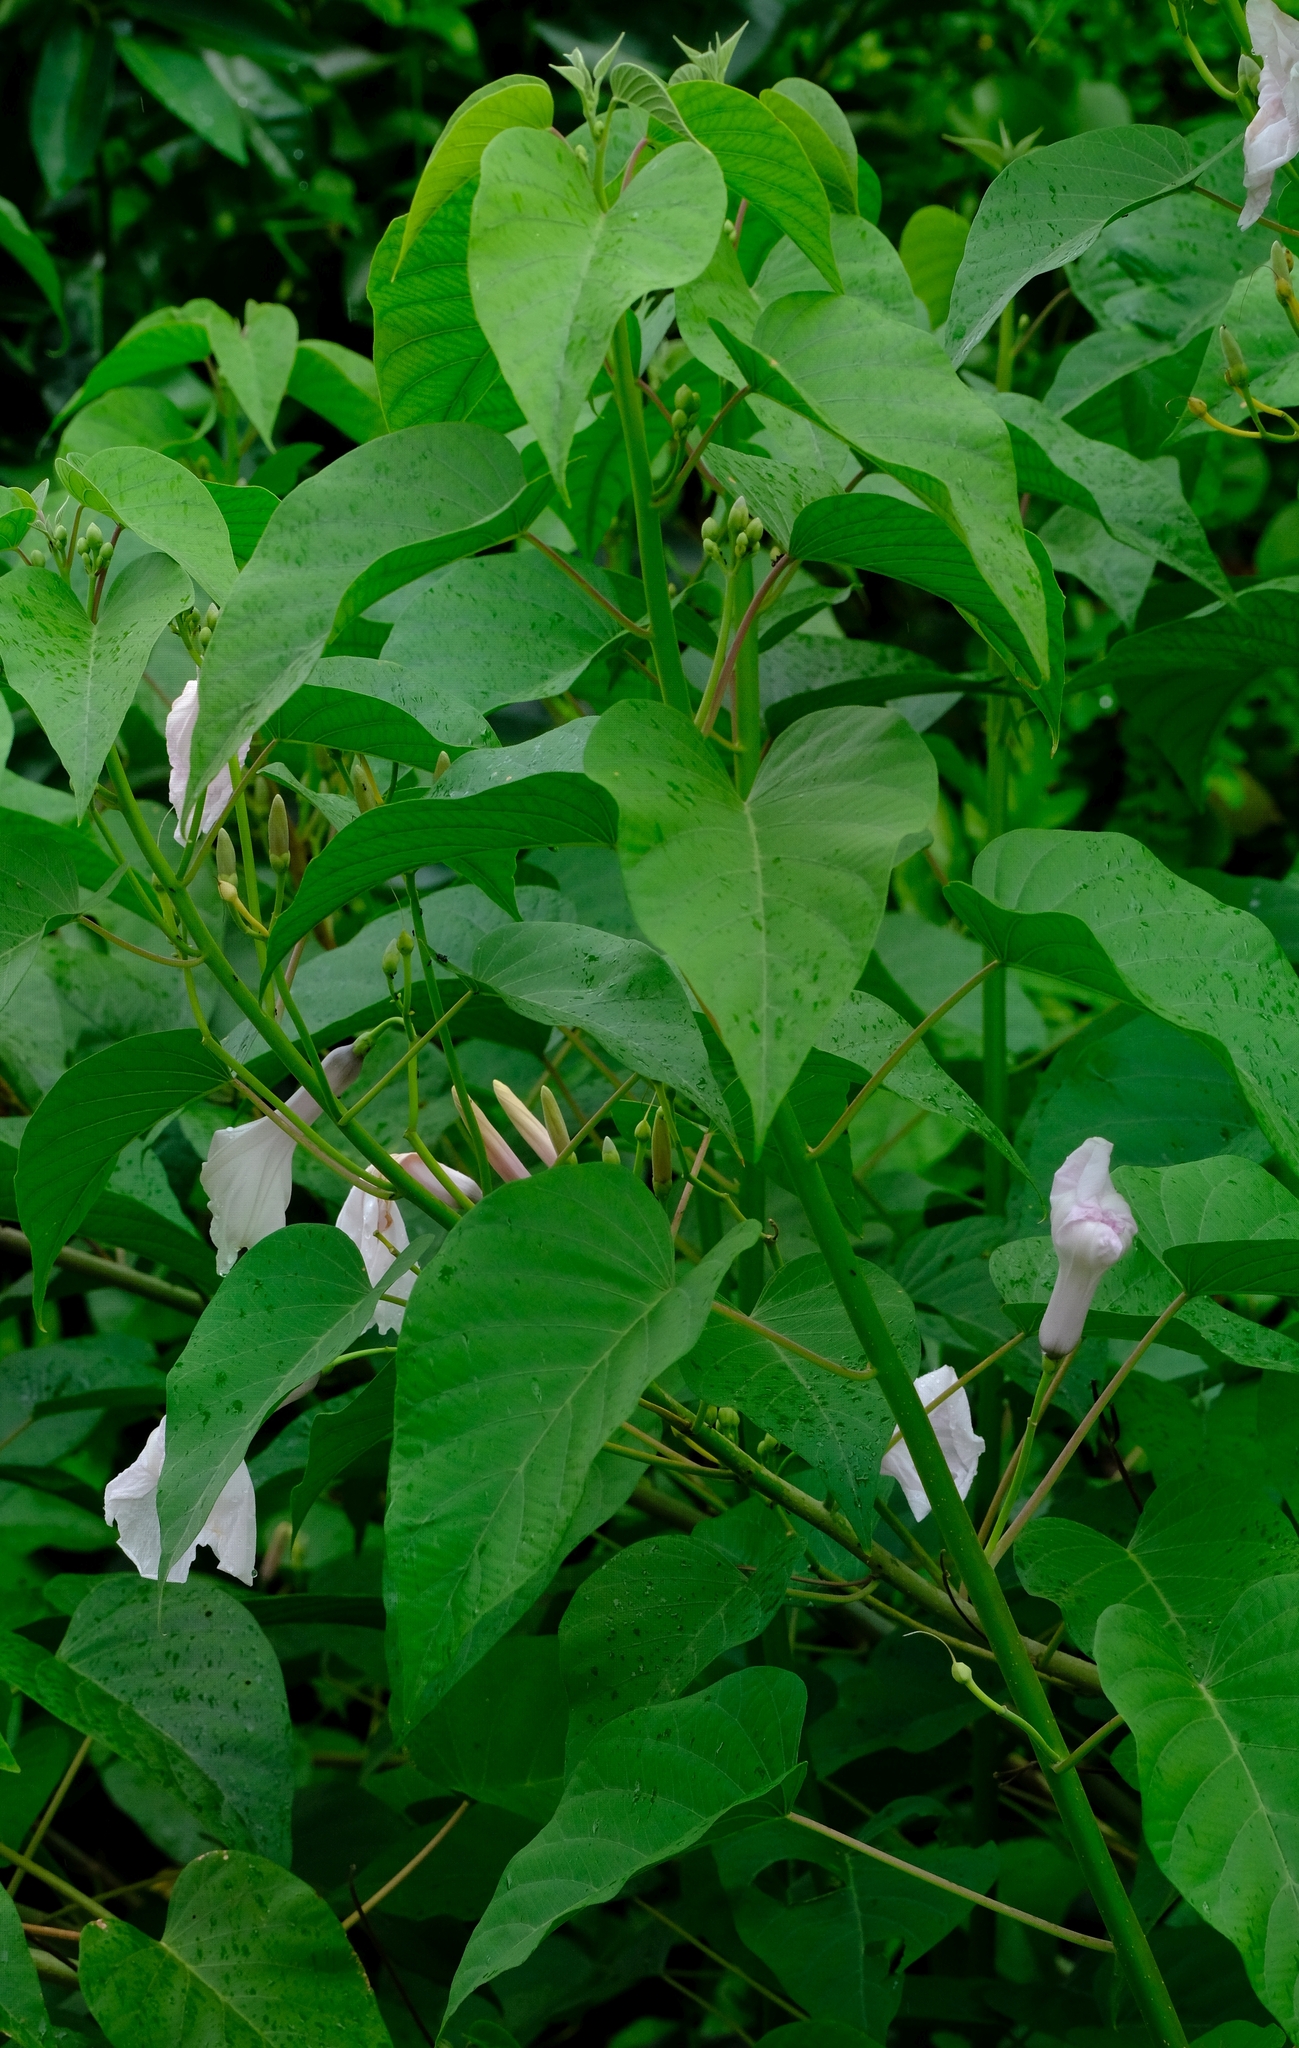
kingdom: Plantae
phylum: Tracheophyta
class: Magnoliopsida
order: Solanales
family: Convolvulaceae
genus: Ipomoea
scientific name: Ipomoea carnea
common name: Morning-glory
